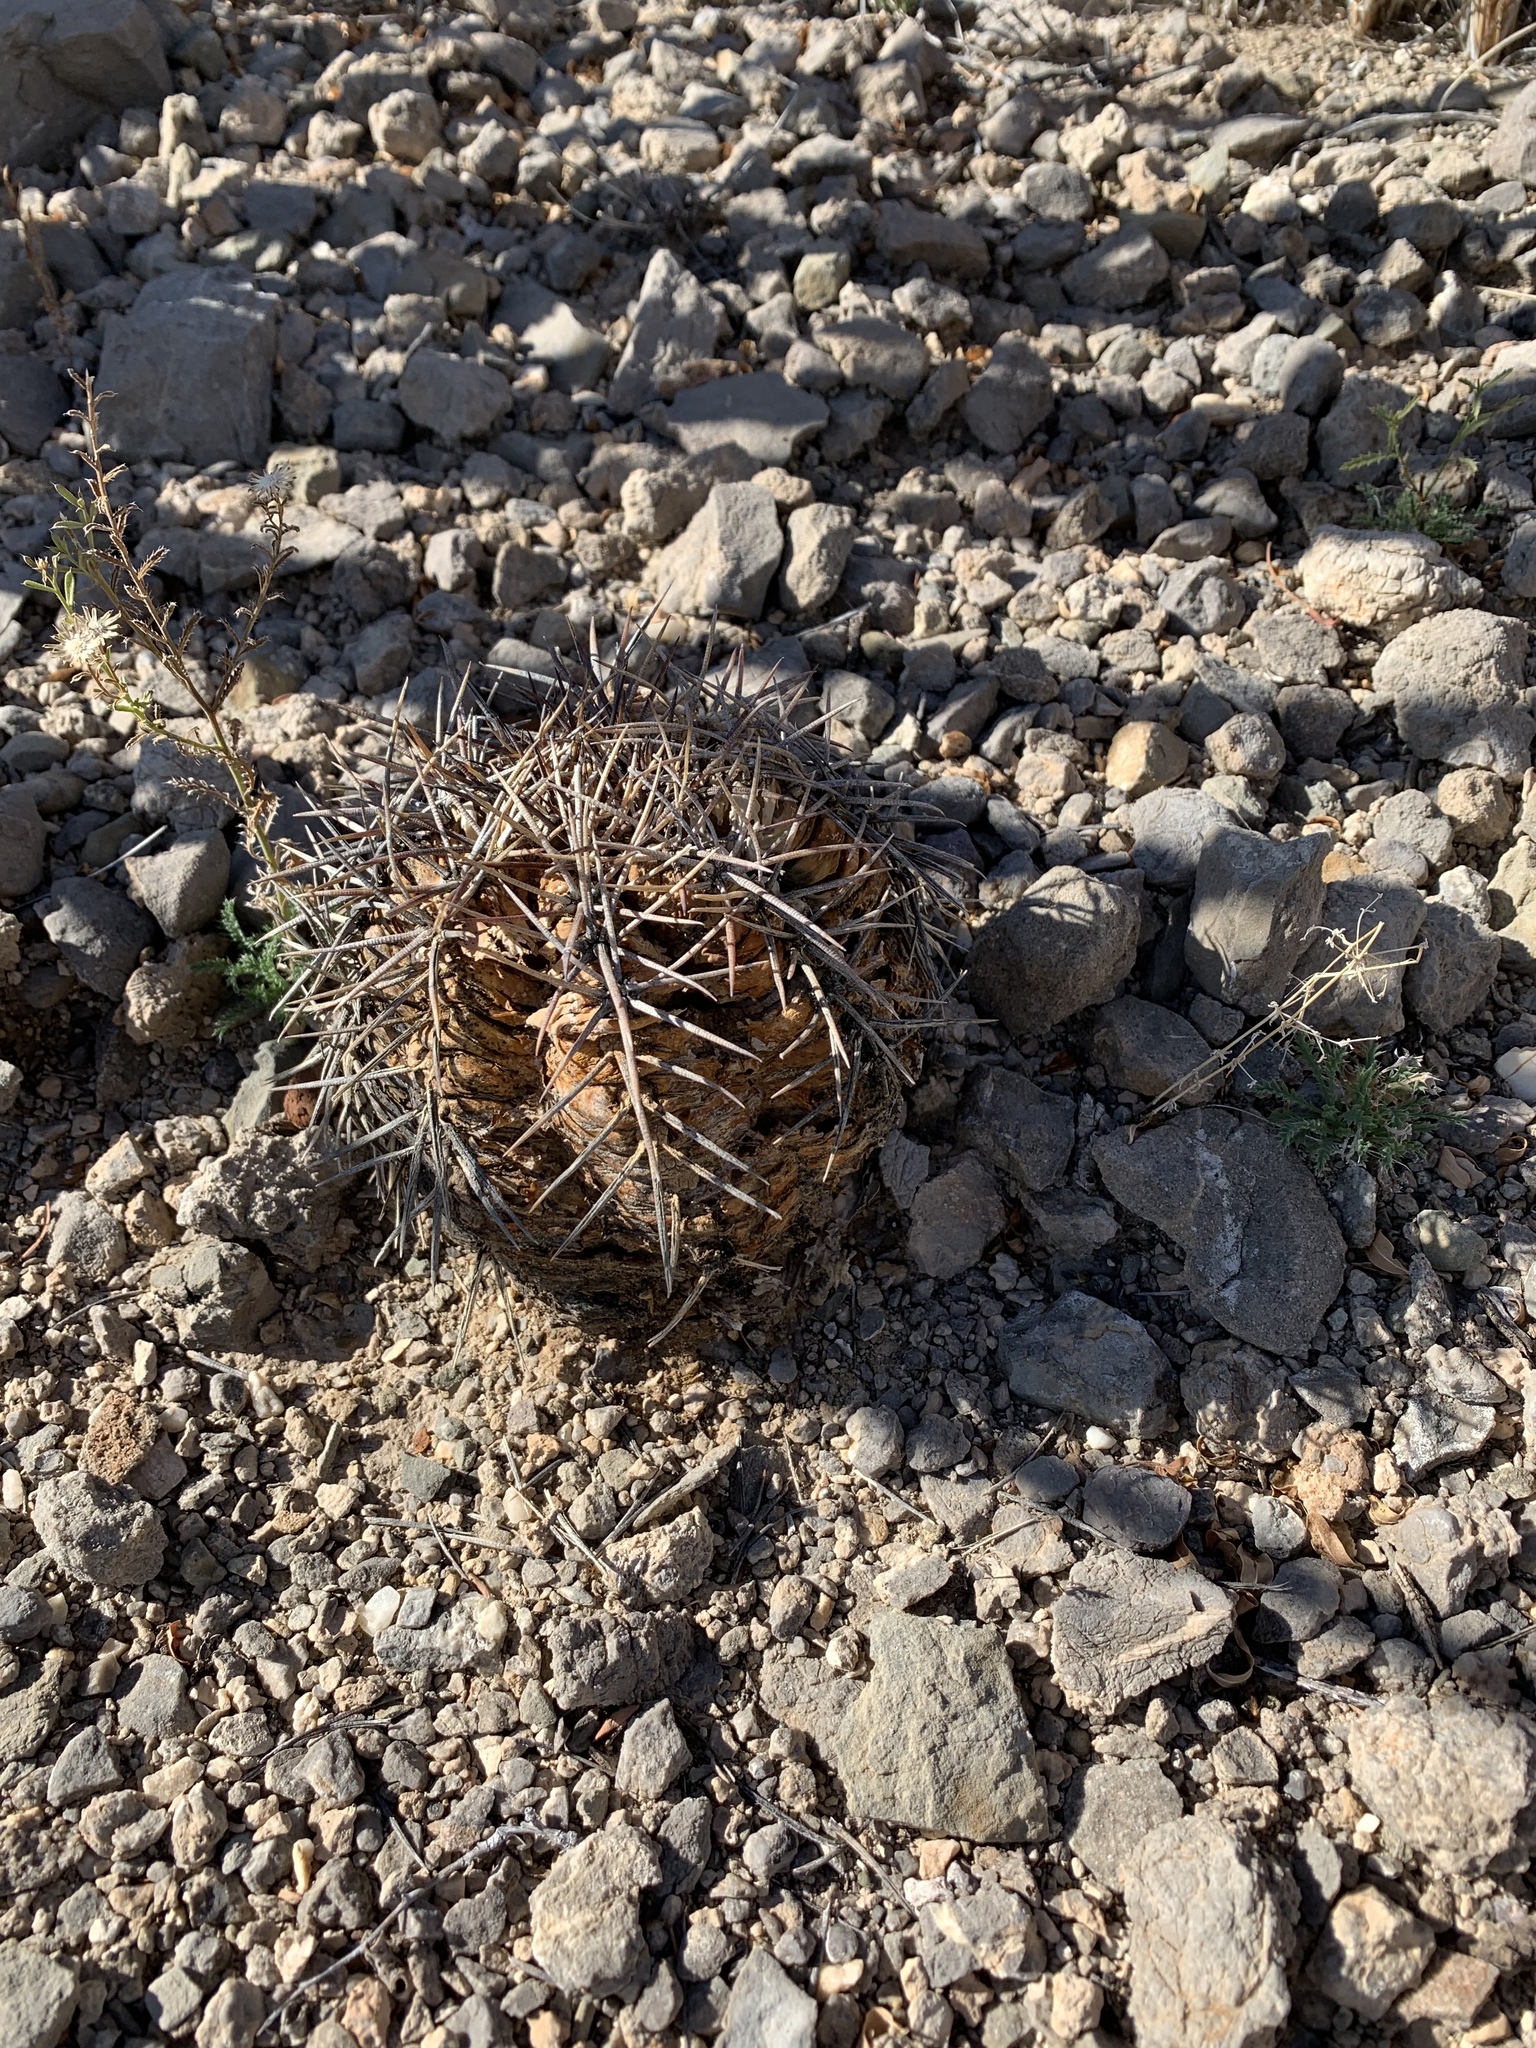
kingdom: Plantae
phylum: Tracheophyta
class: Magnoliopsida
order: Caryophyllales
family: Cactaceae
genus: Echinocactus
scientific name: Echinocactus horizonthalonius
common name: Devilshead
